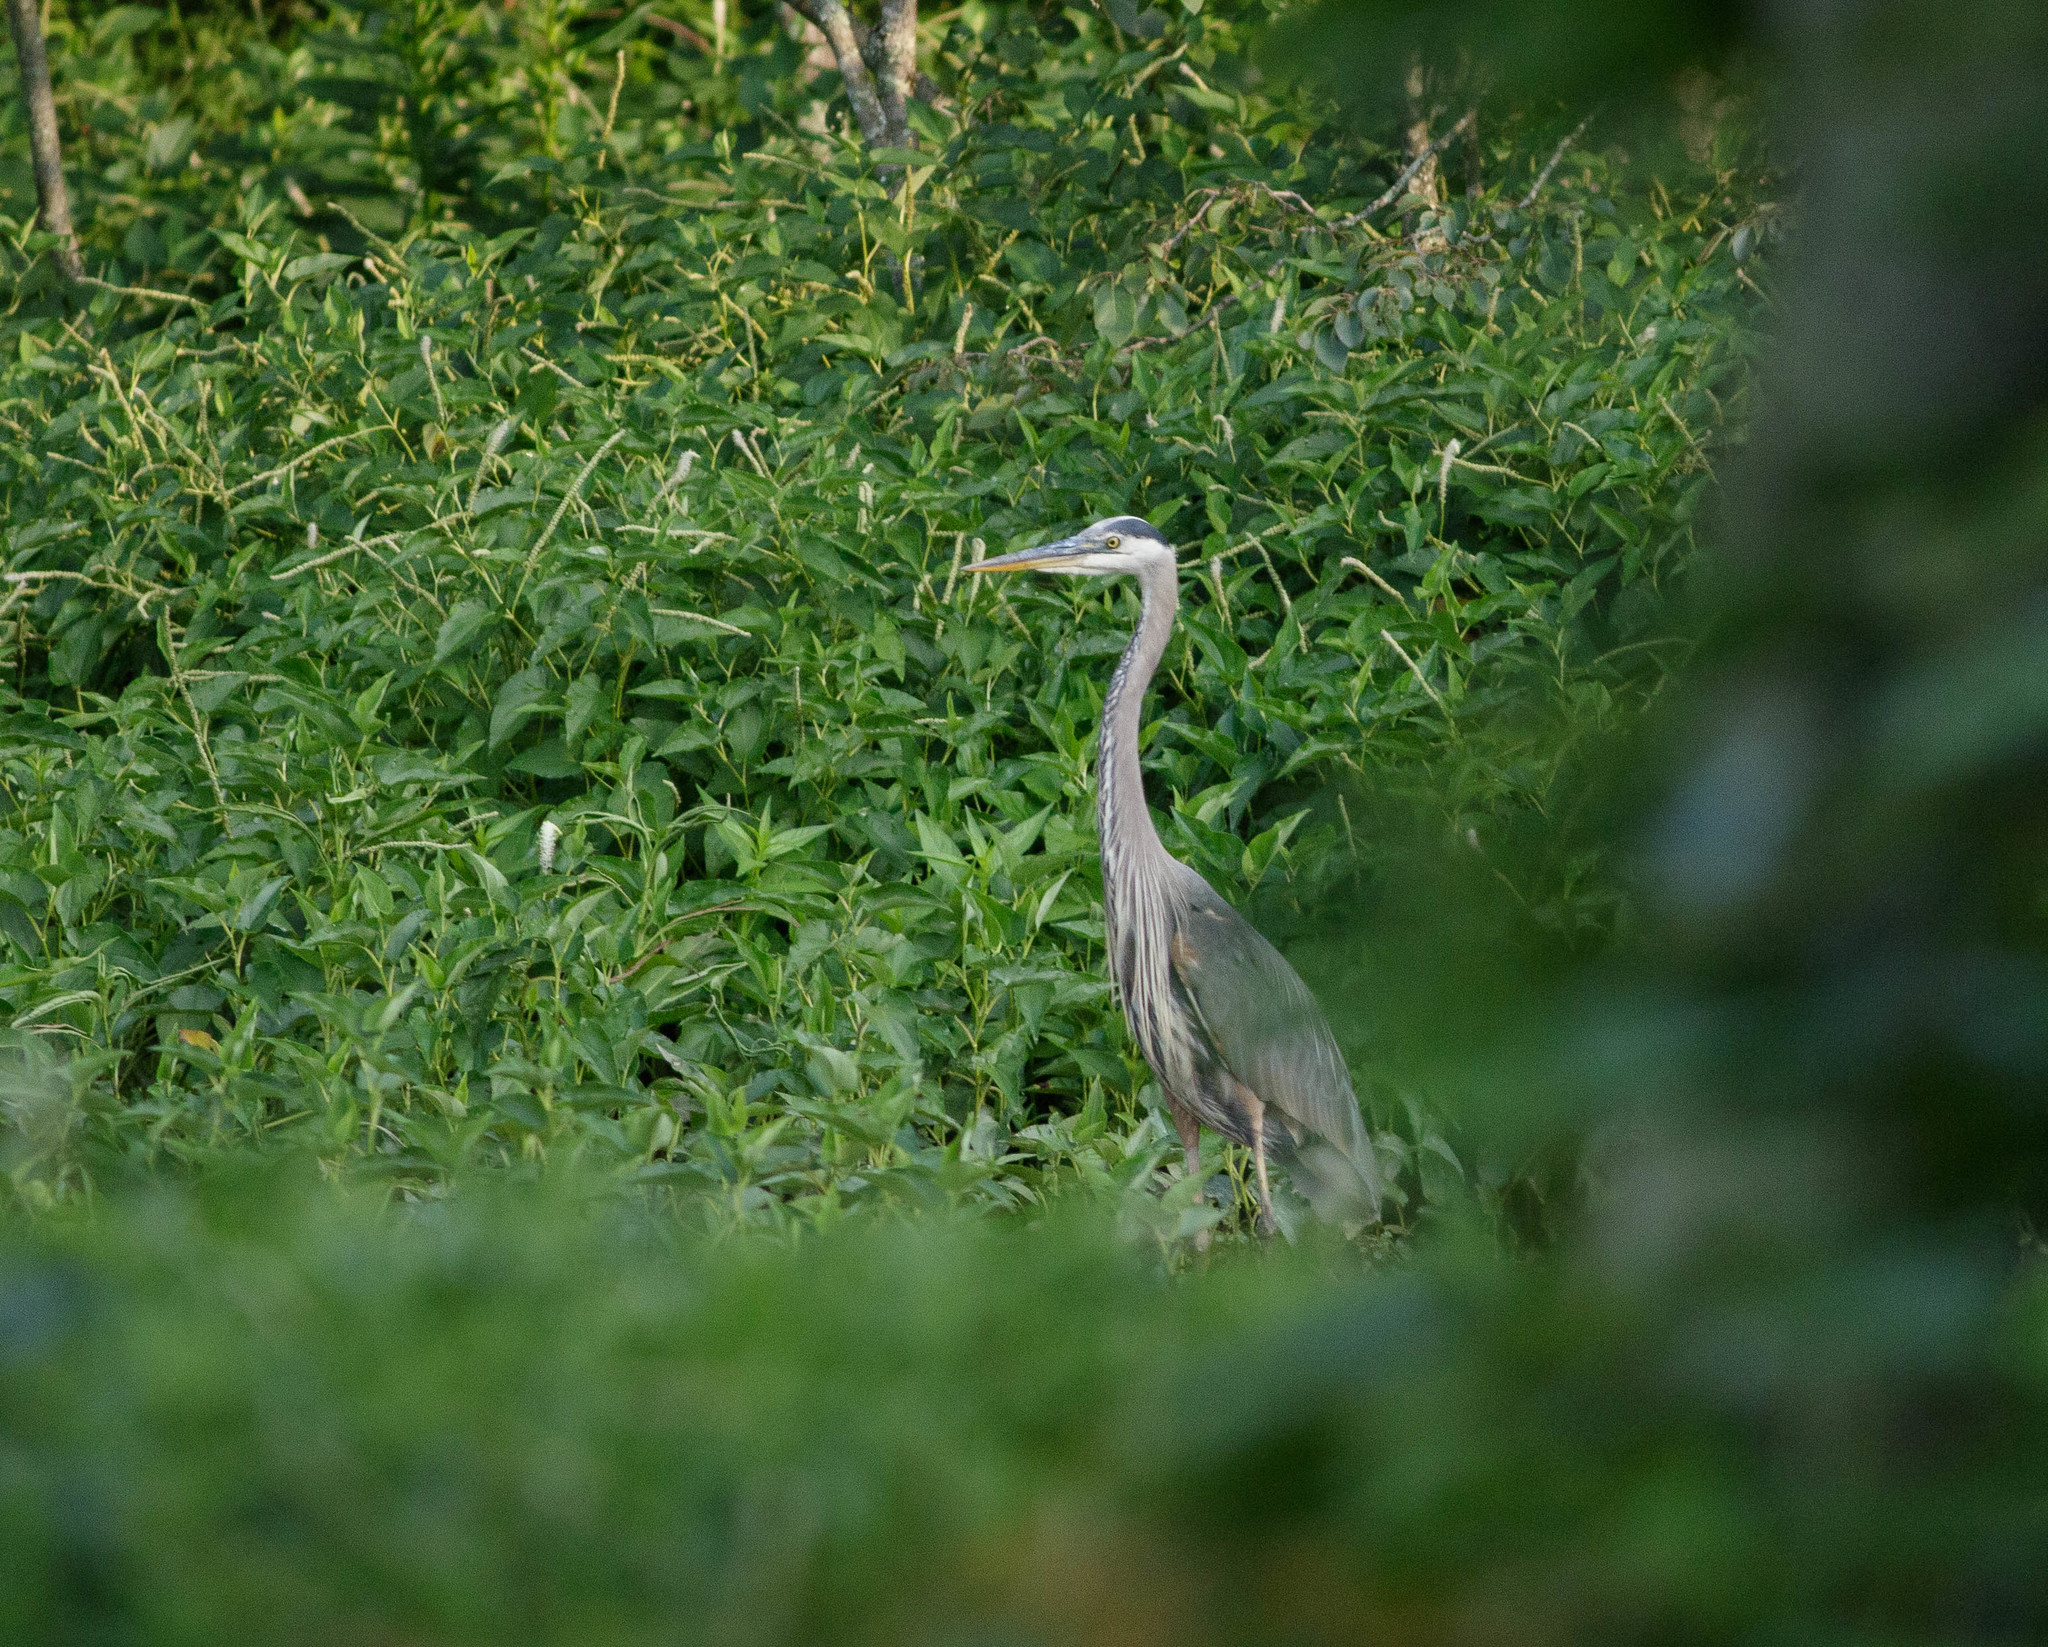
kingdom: Animalia
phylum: Chordata
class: Aves
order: Pelecaniformes
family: Ardeidae
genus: Ardea
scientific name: Ardea herodias
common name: Great blue heron
